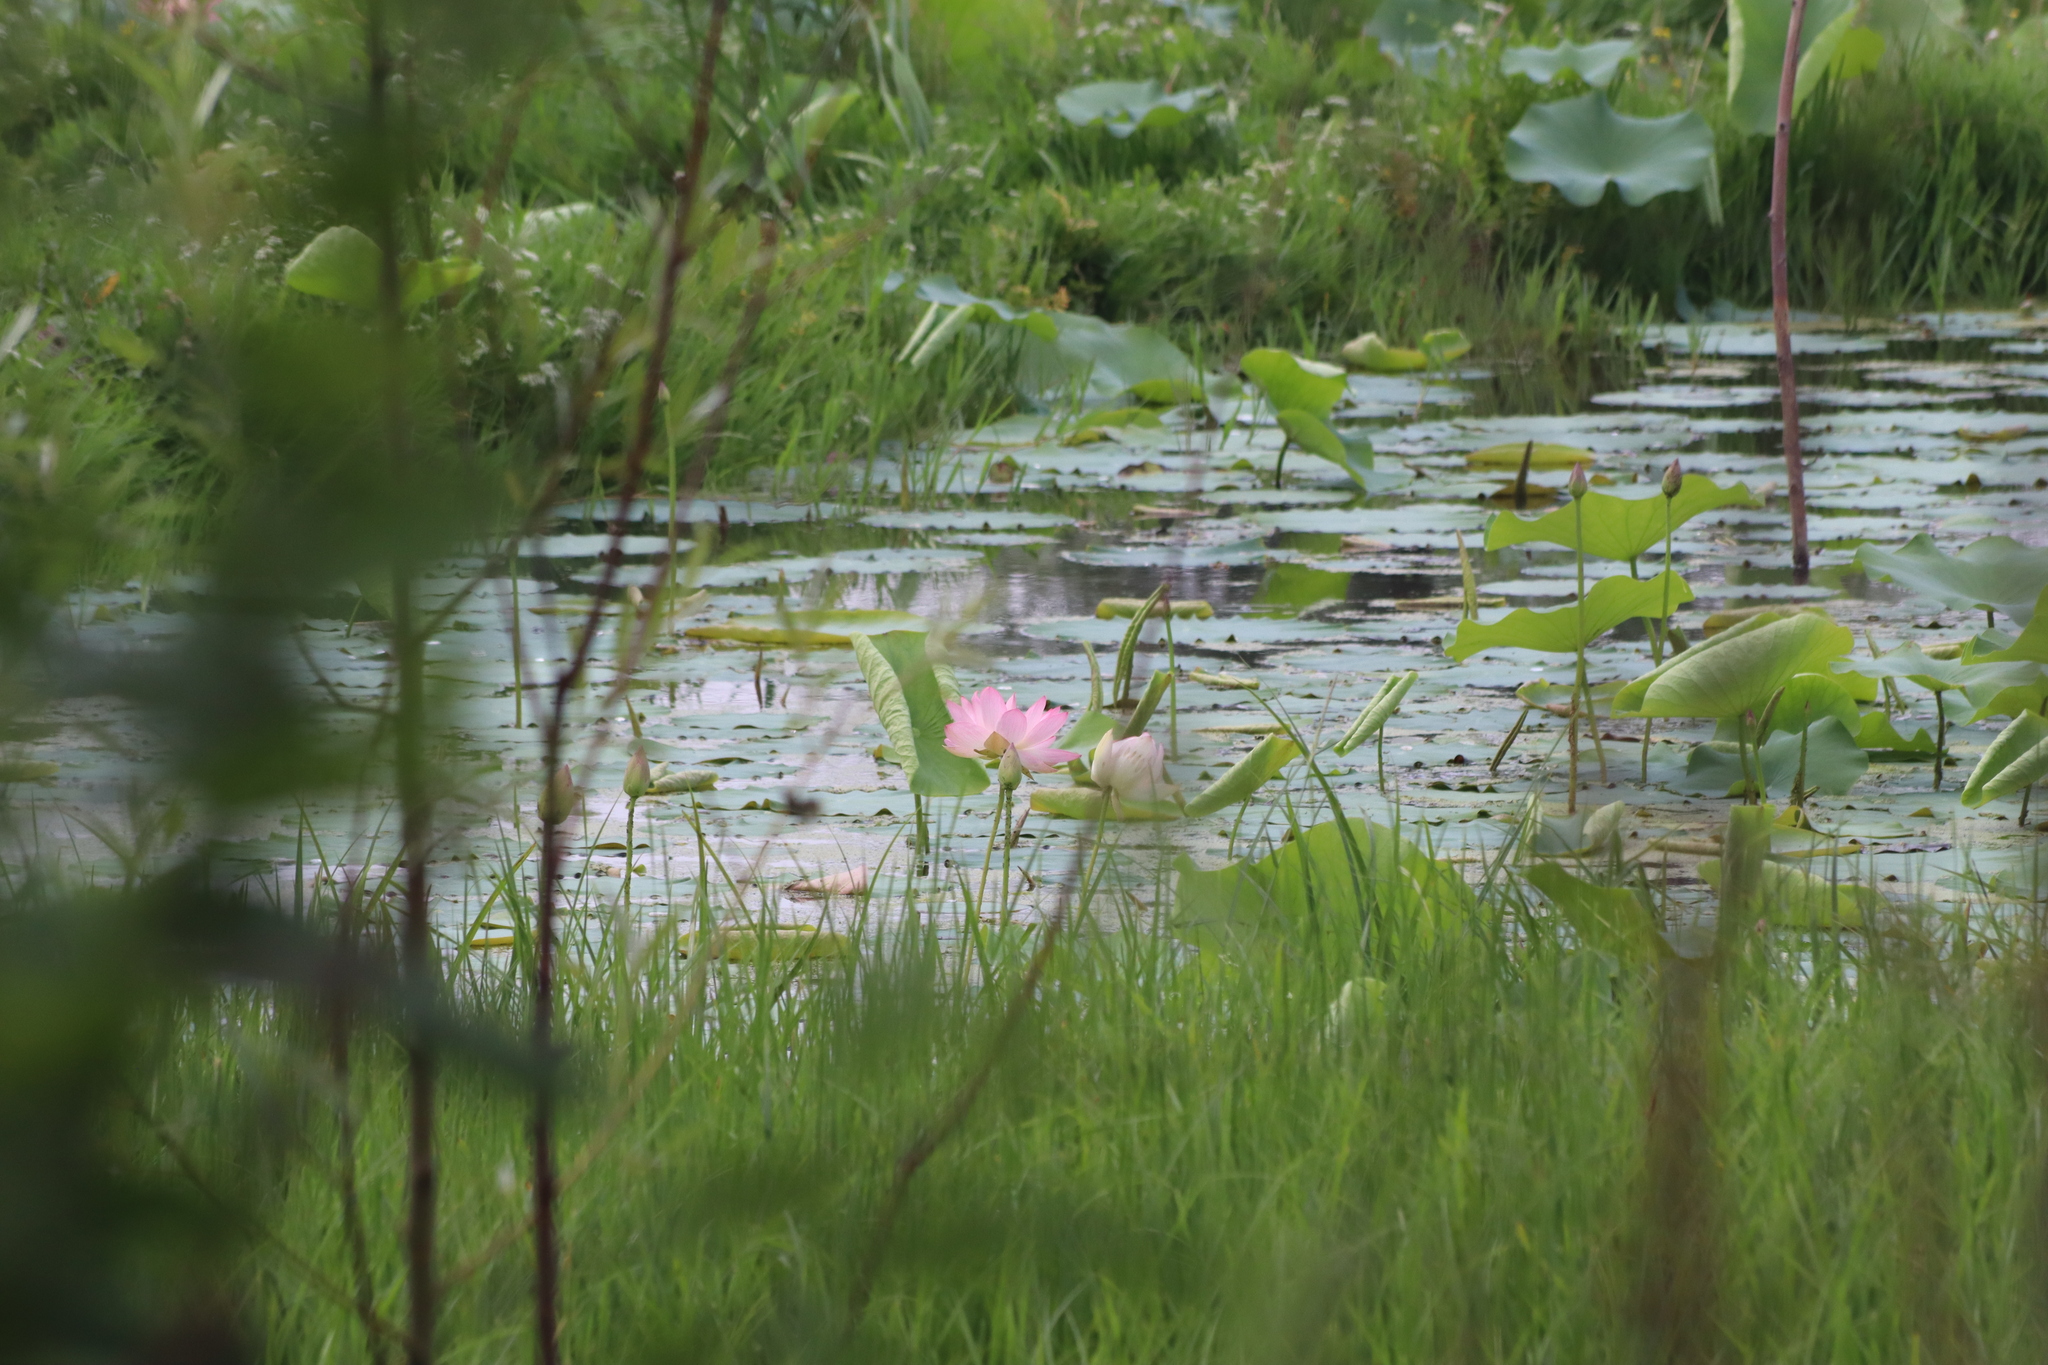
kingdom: Plantae
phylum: Tracheophyta
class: Magnoliopsida
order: Proteales
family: Nelumbonaceae
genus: Nelumbo
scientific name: Nelumbo nucifera
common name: Sacred lotus
